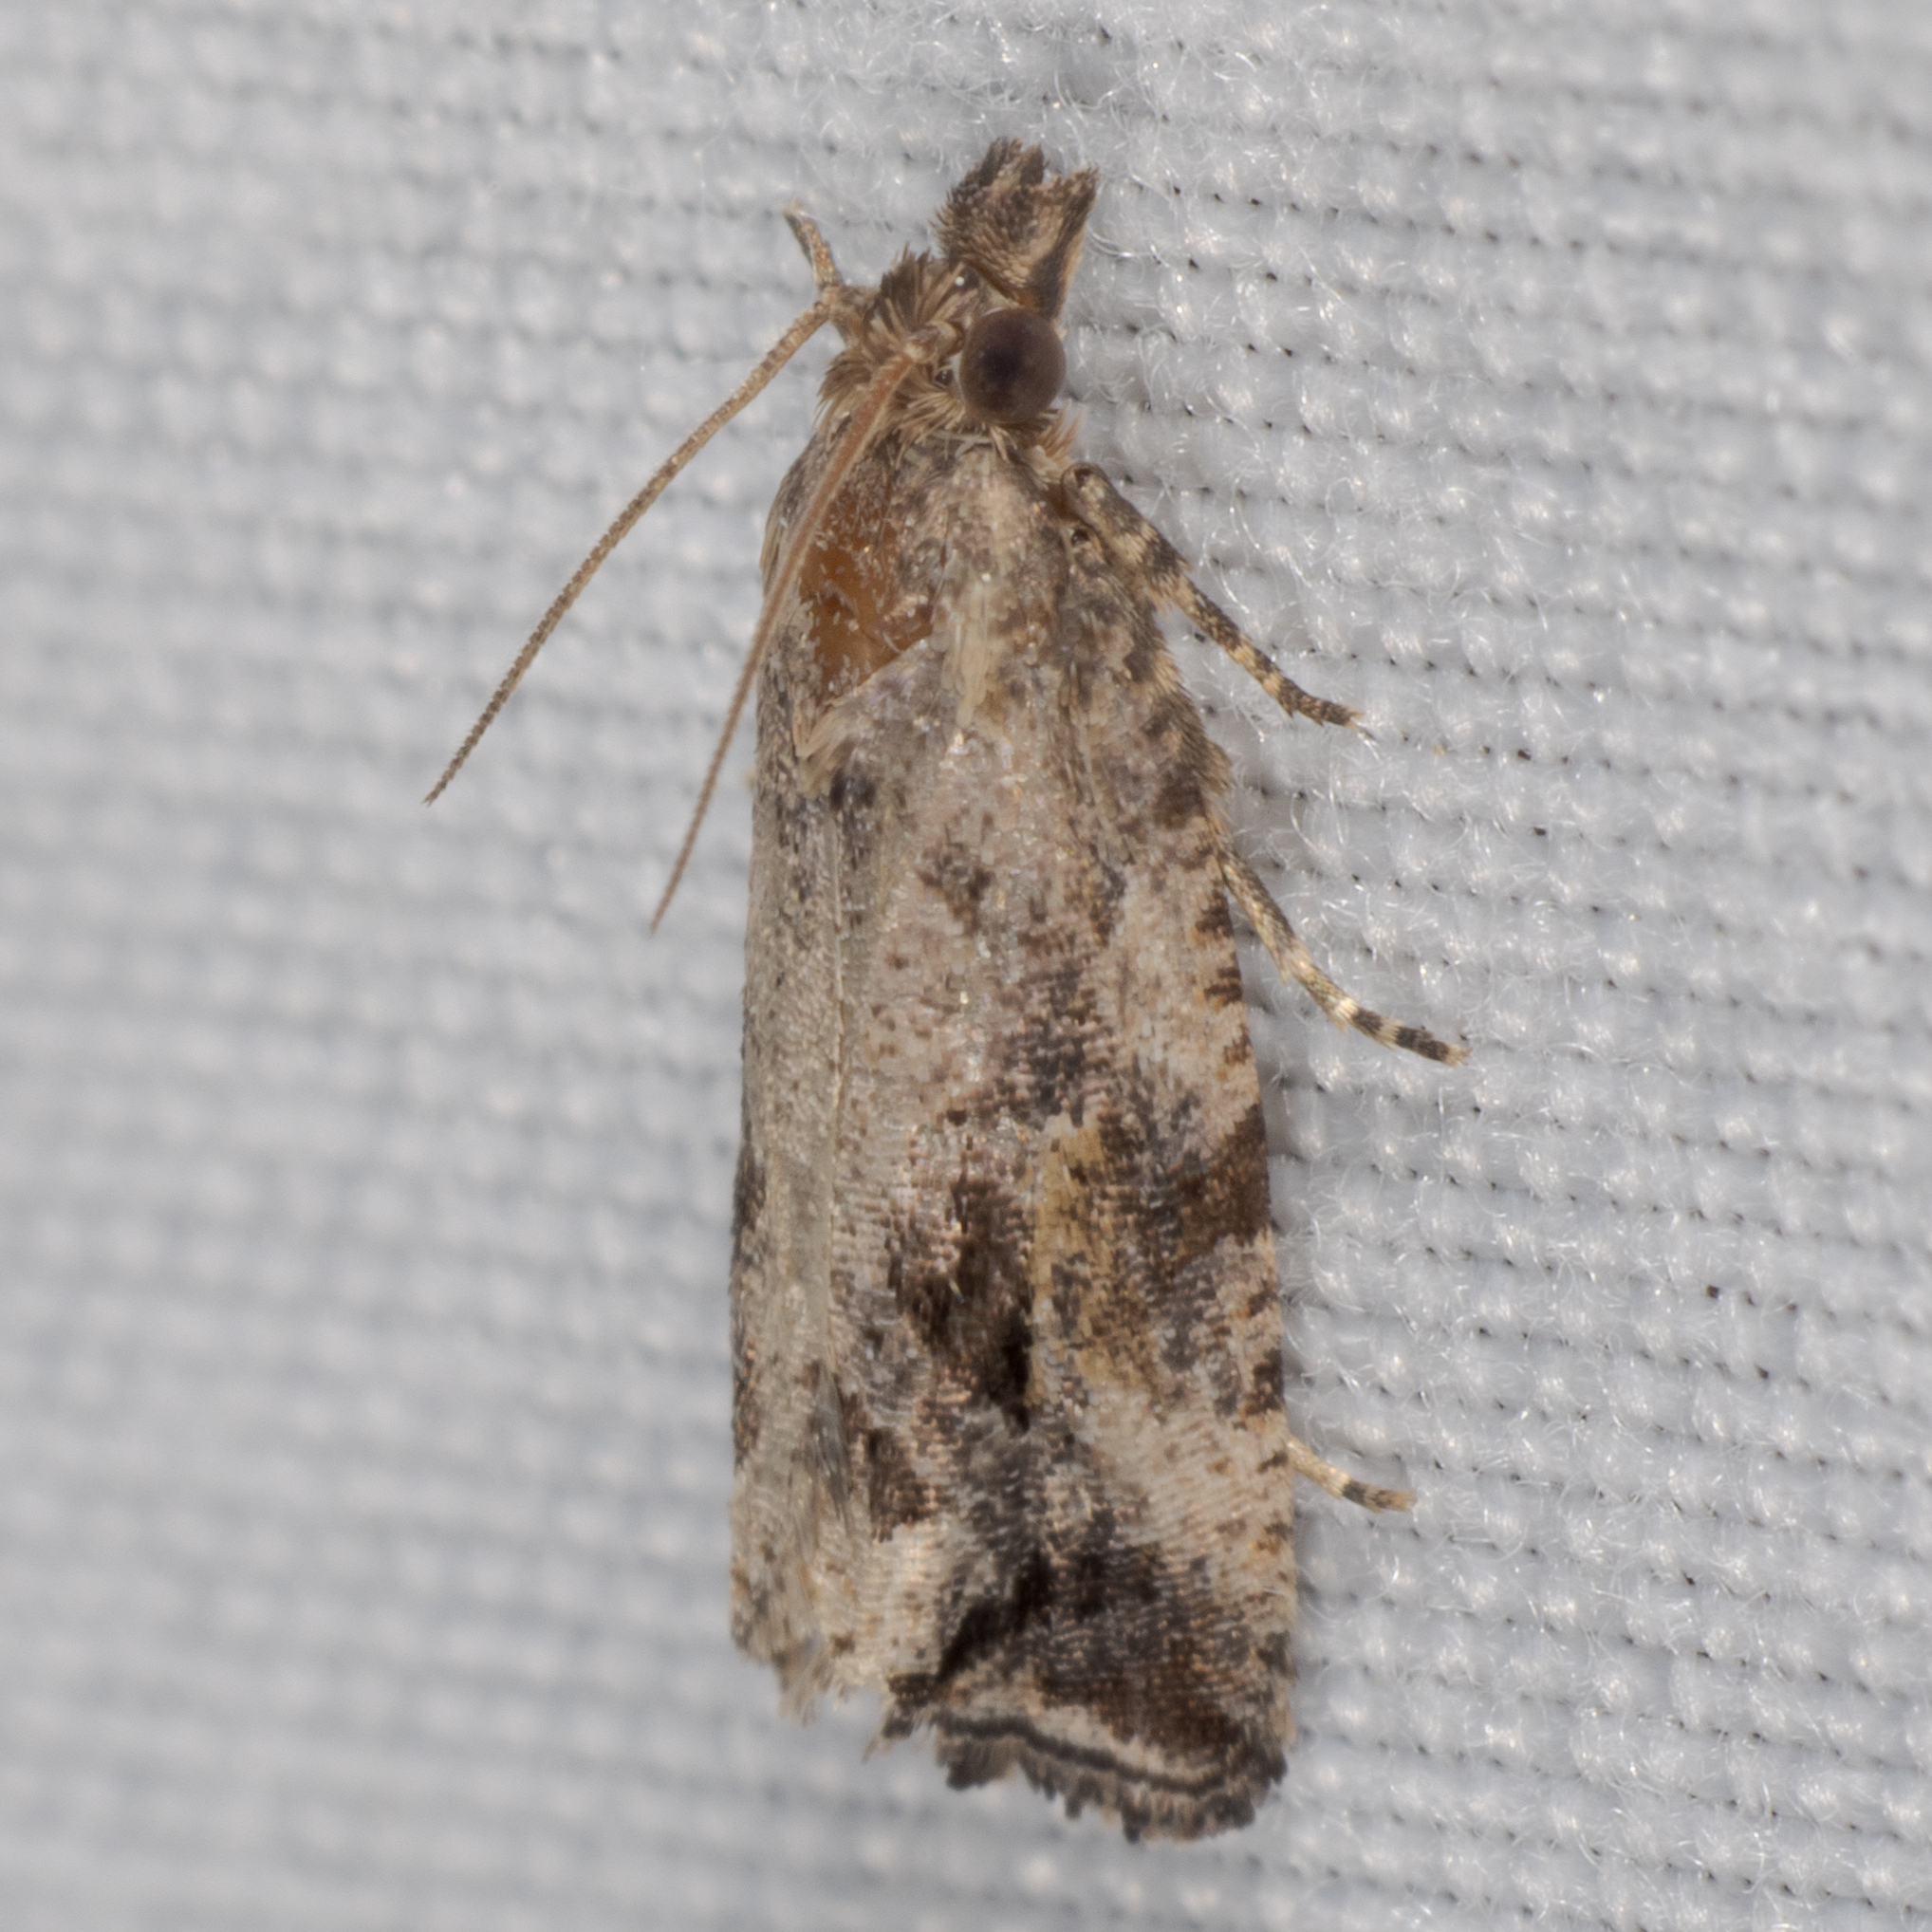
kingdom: Animalia
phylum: Arthropoda
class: Insecta
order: Lepidoptera
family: Tortricidae
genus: Endothenia
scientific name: Endothenia nubilana
